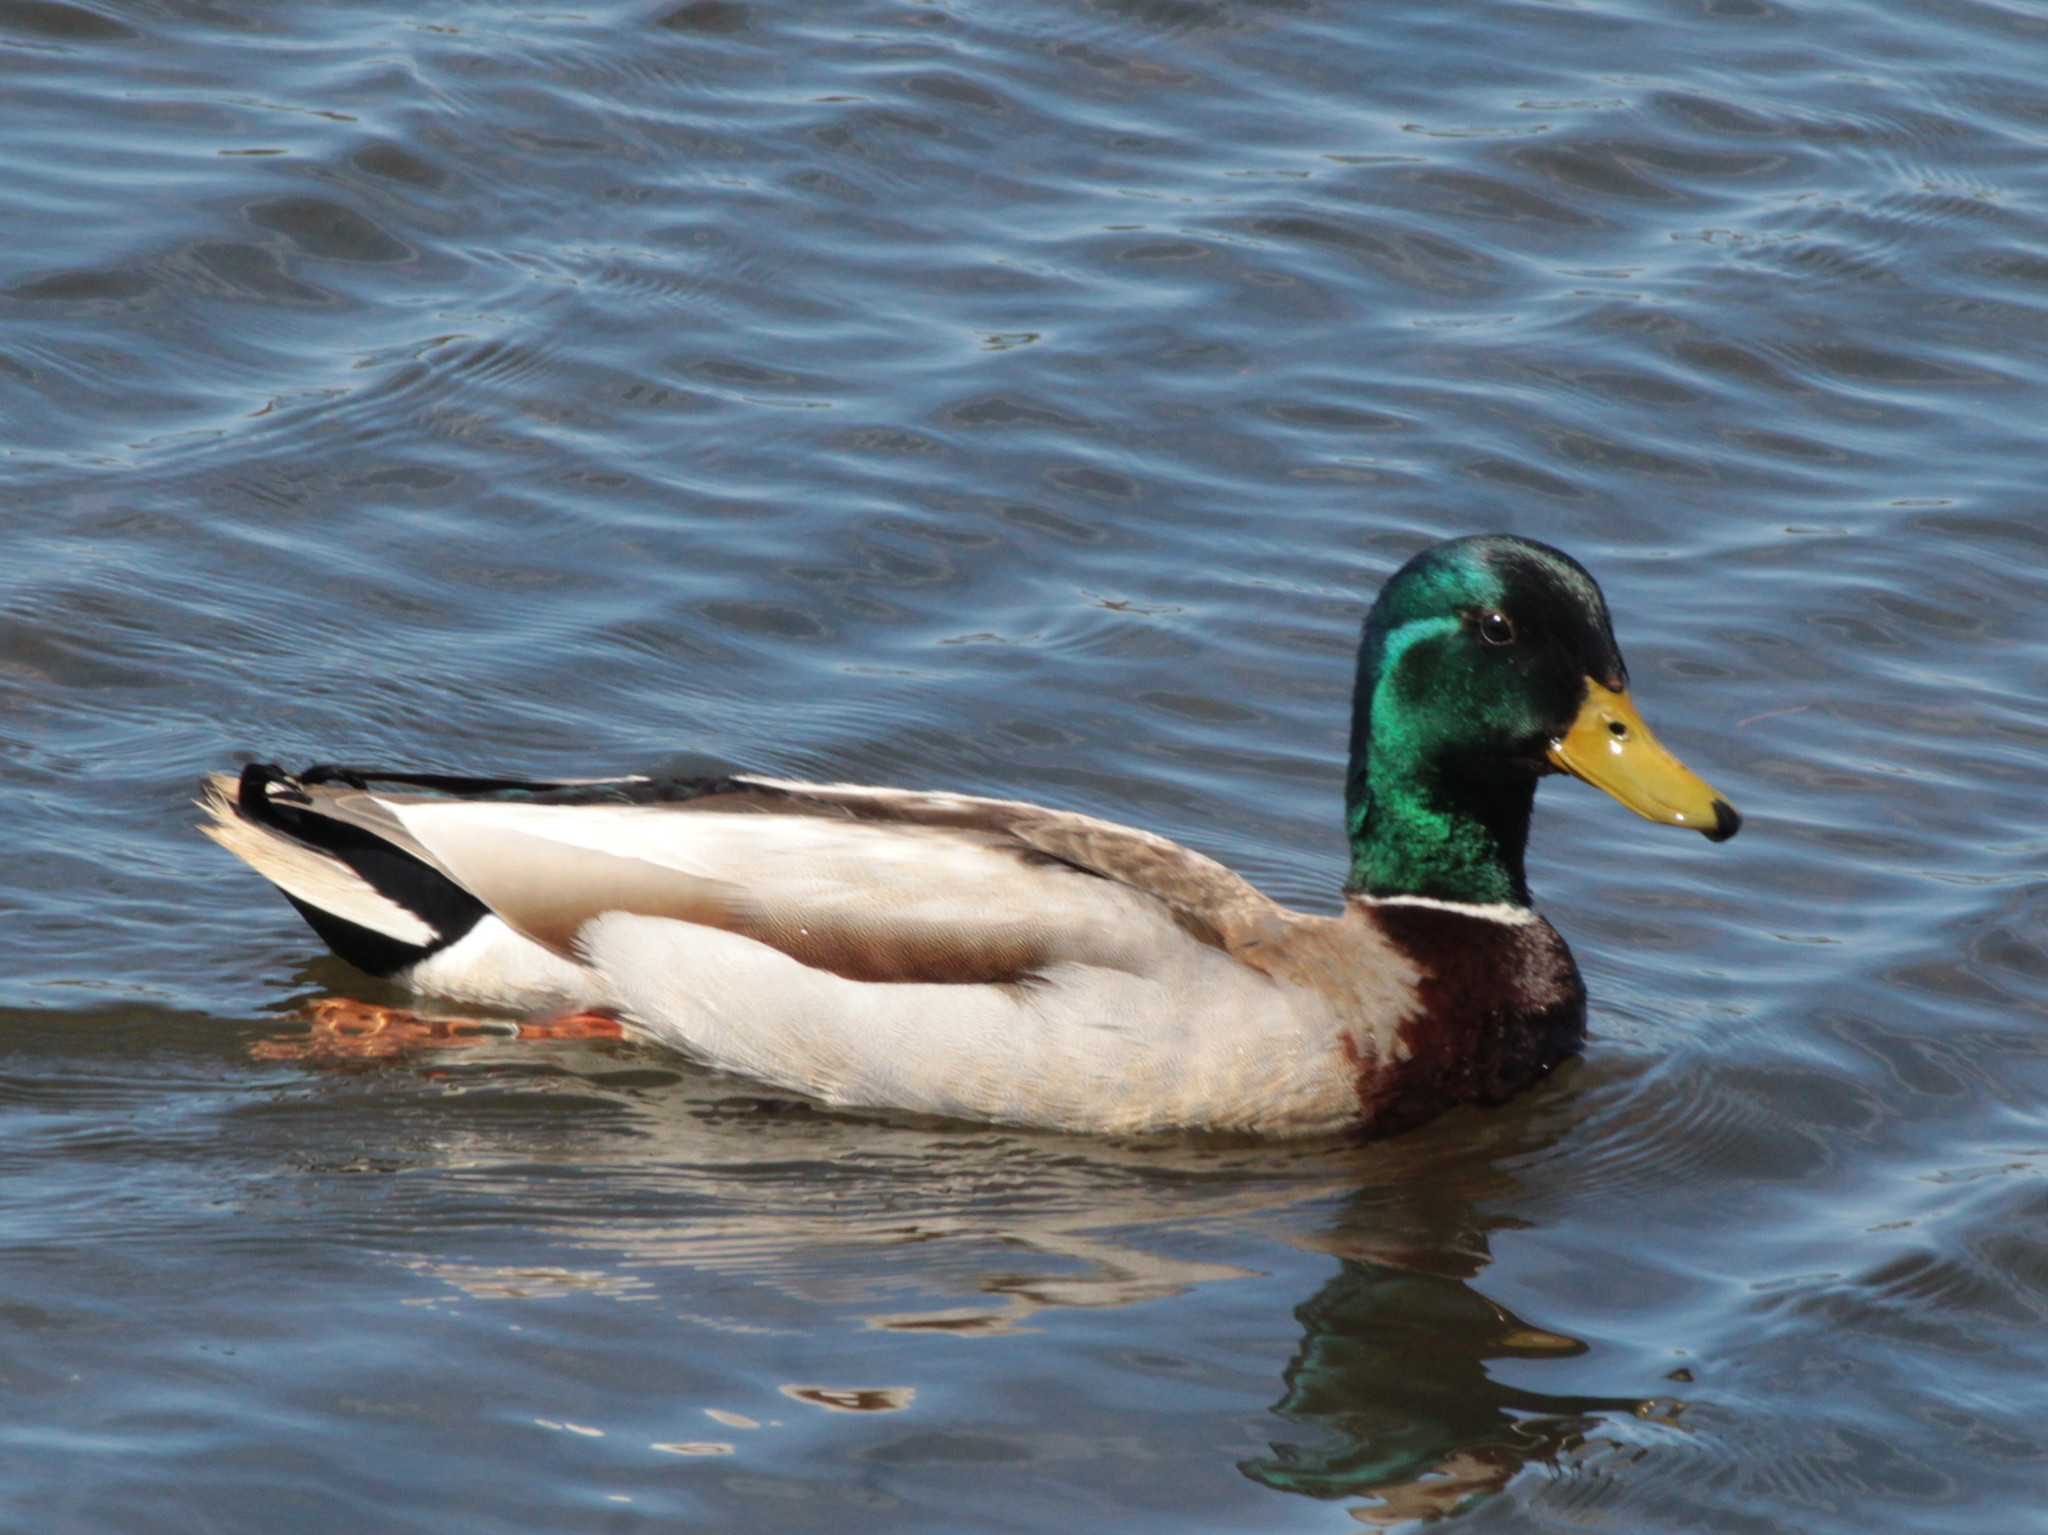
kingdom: Animalia
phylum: Chordata
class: Aves
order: Anseriformes
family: Anatidae
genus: Anas
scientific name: Anas platyrhynchos
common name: Mallard
